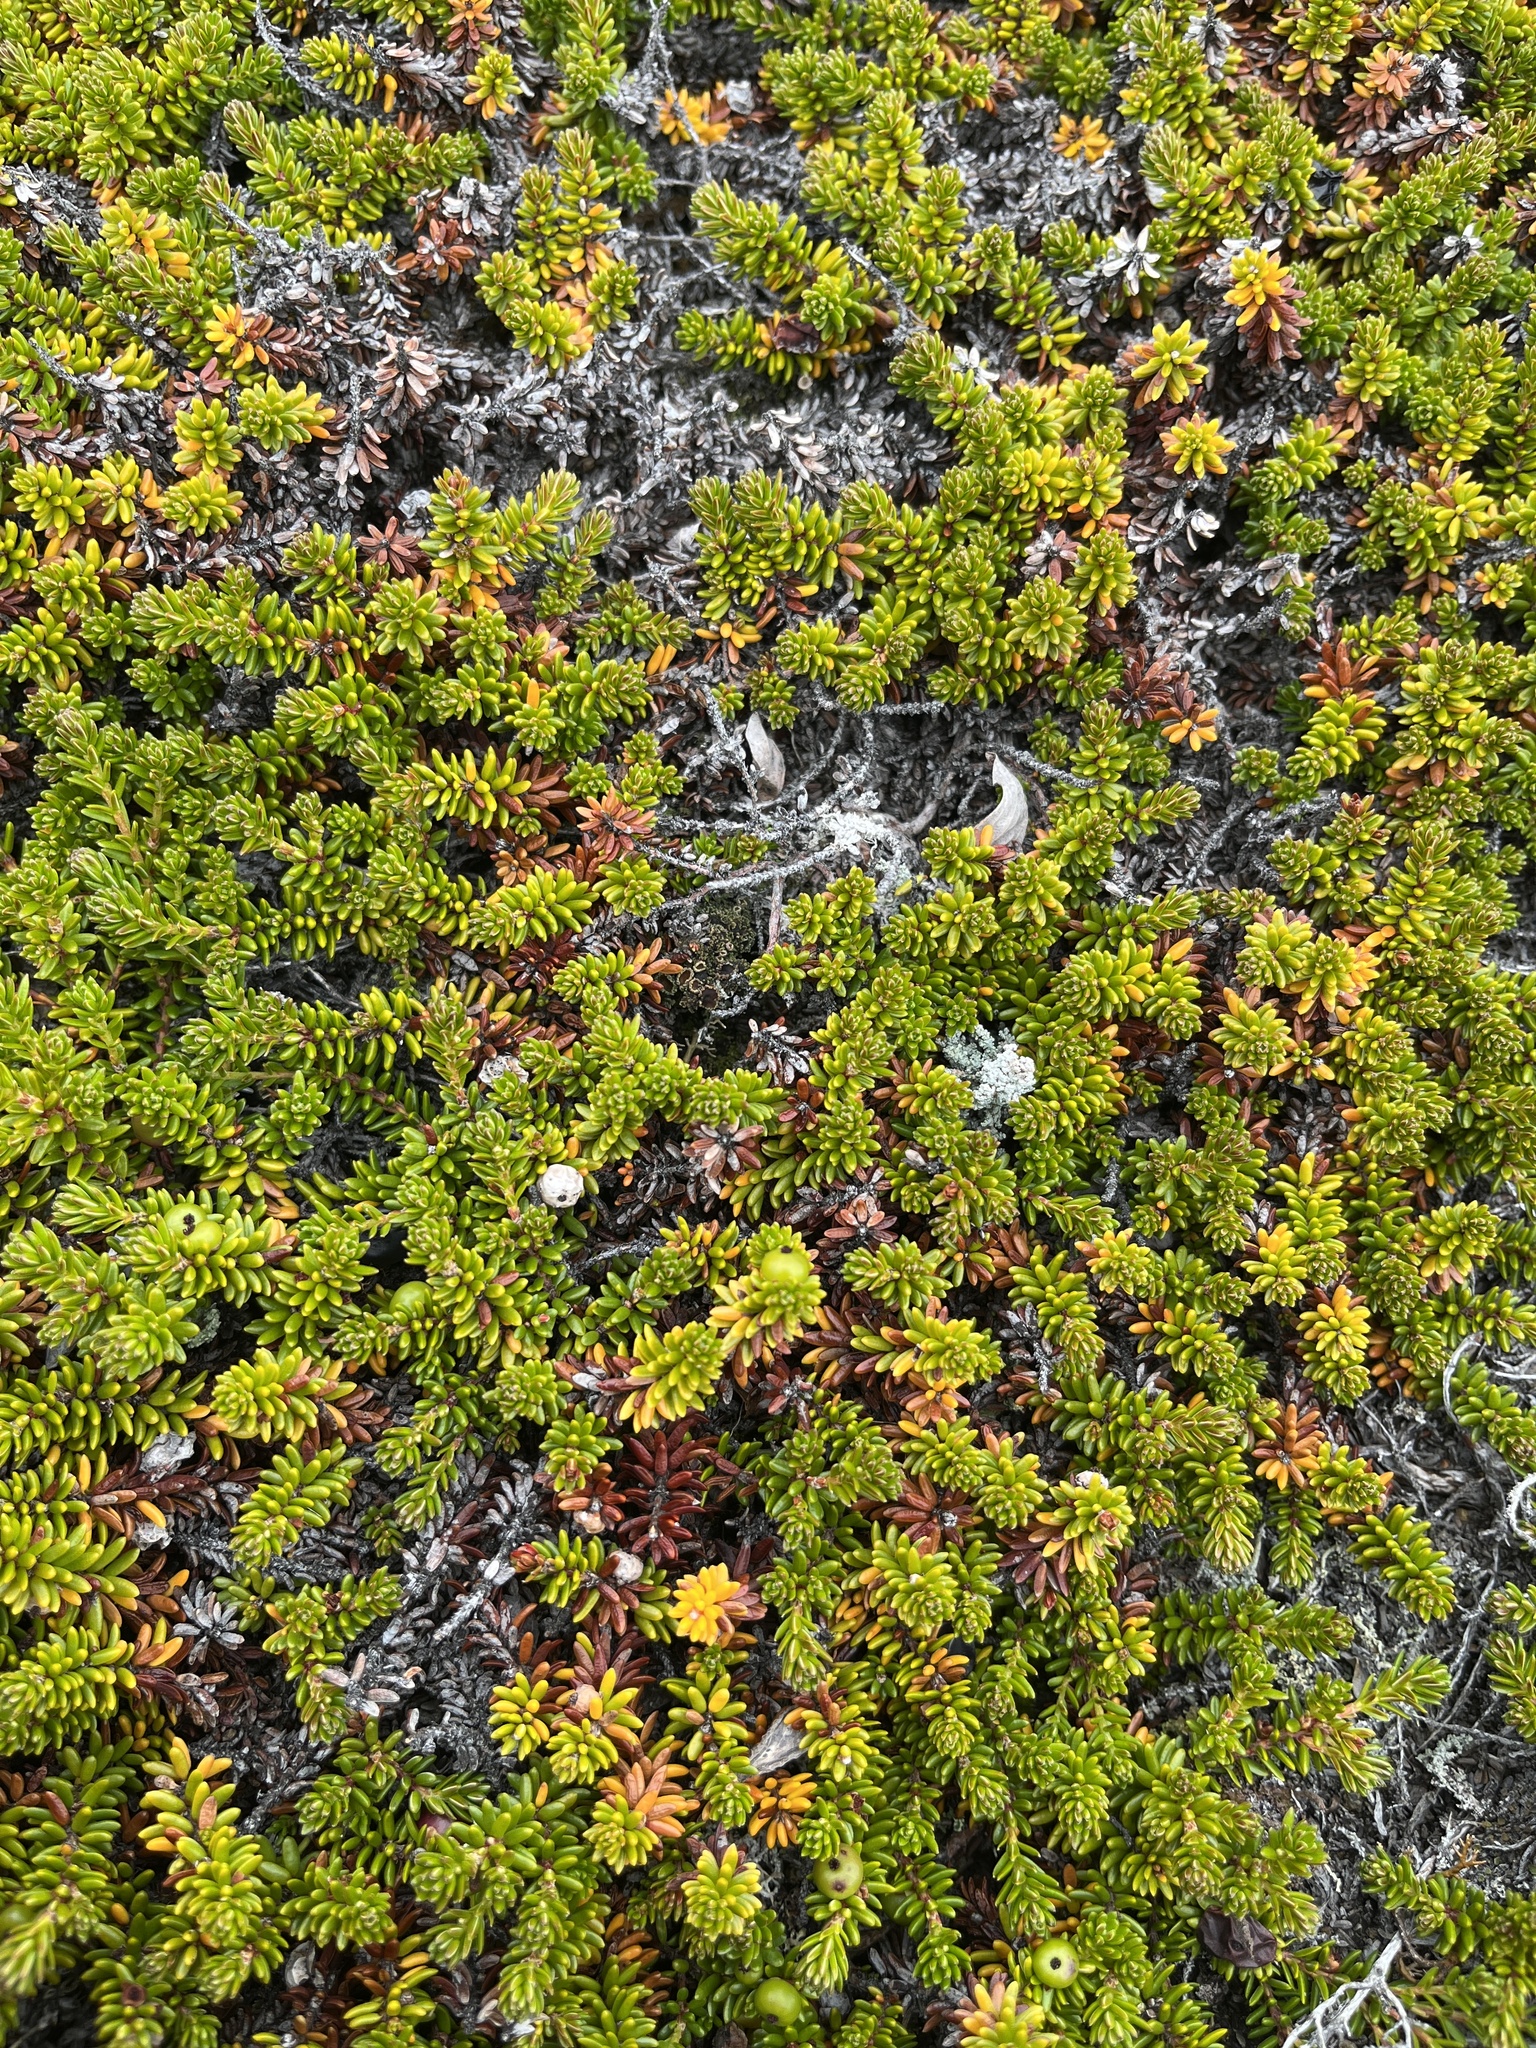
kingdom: Plantae
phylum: Tracheophyta
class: Magnoliopsida
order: Ericales
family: Ericaceae
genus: Empetrum
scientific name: Empetrum hermaphroditum
